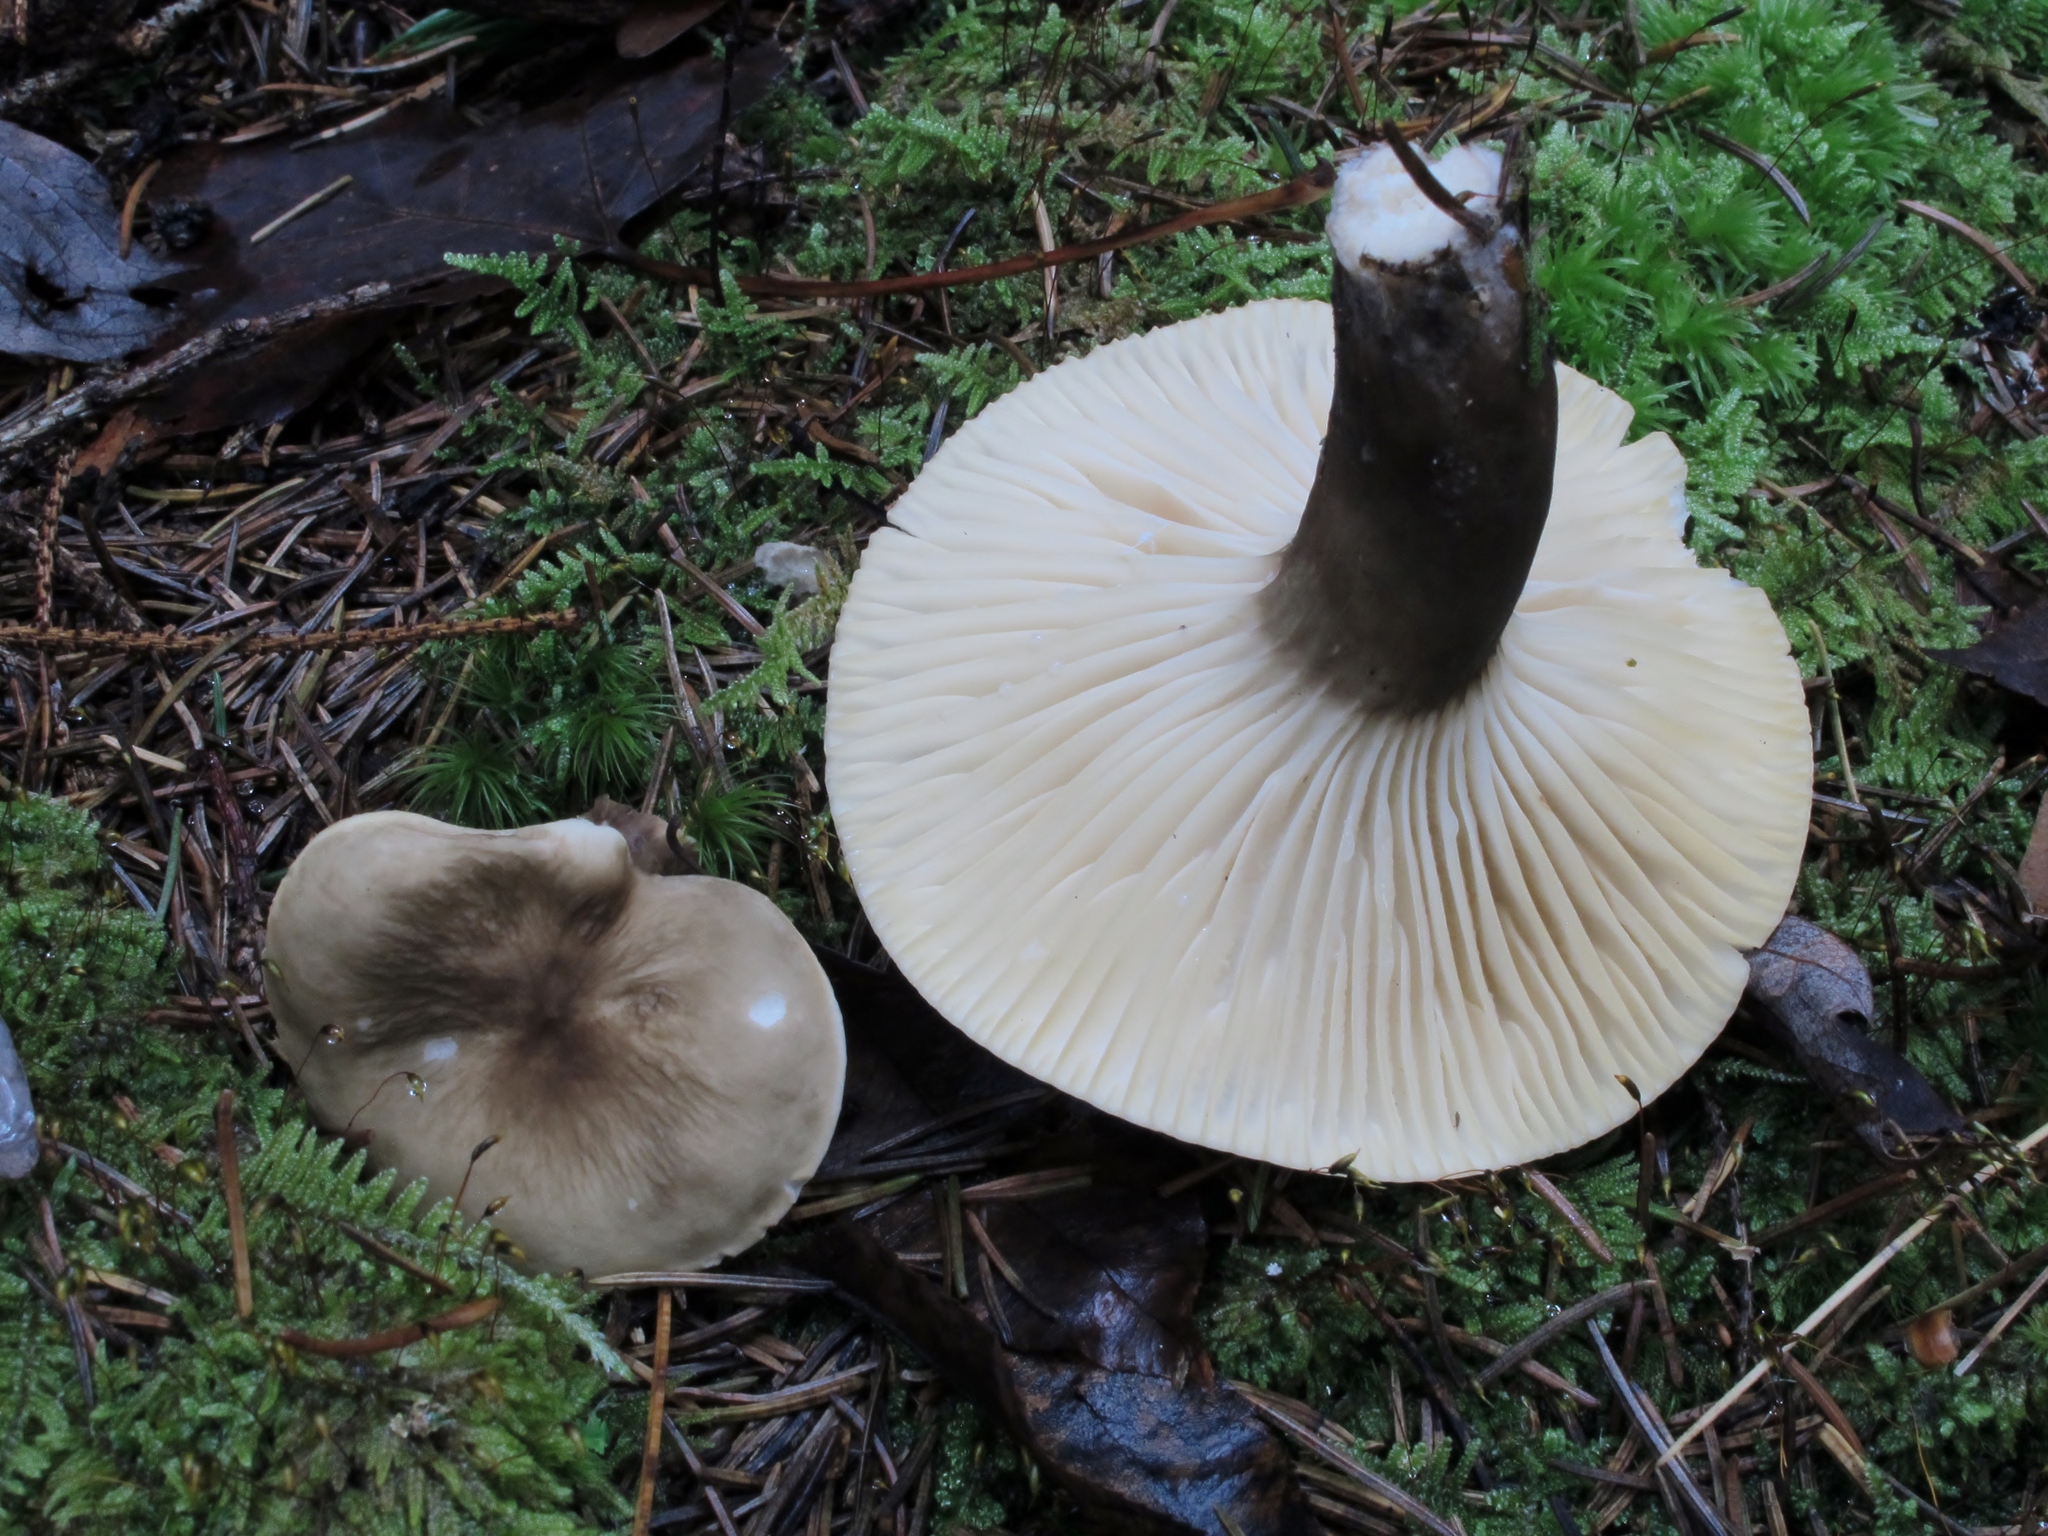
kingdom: Fungi
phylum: Basidiomycota
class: Agaricomycetes
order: Russulales
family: Russulaceae
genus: Lactarius
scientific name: Lactarius gerardii
